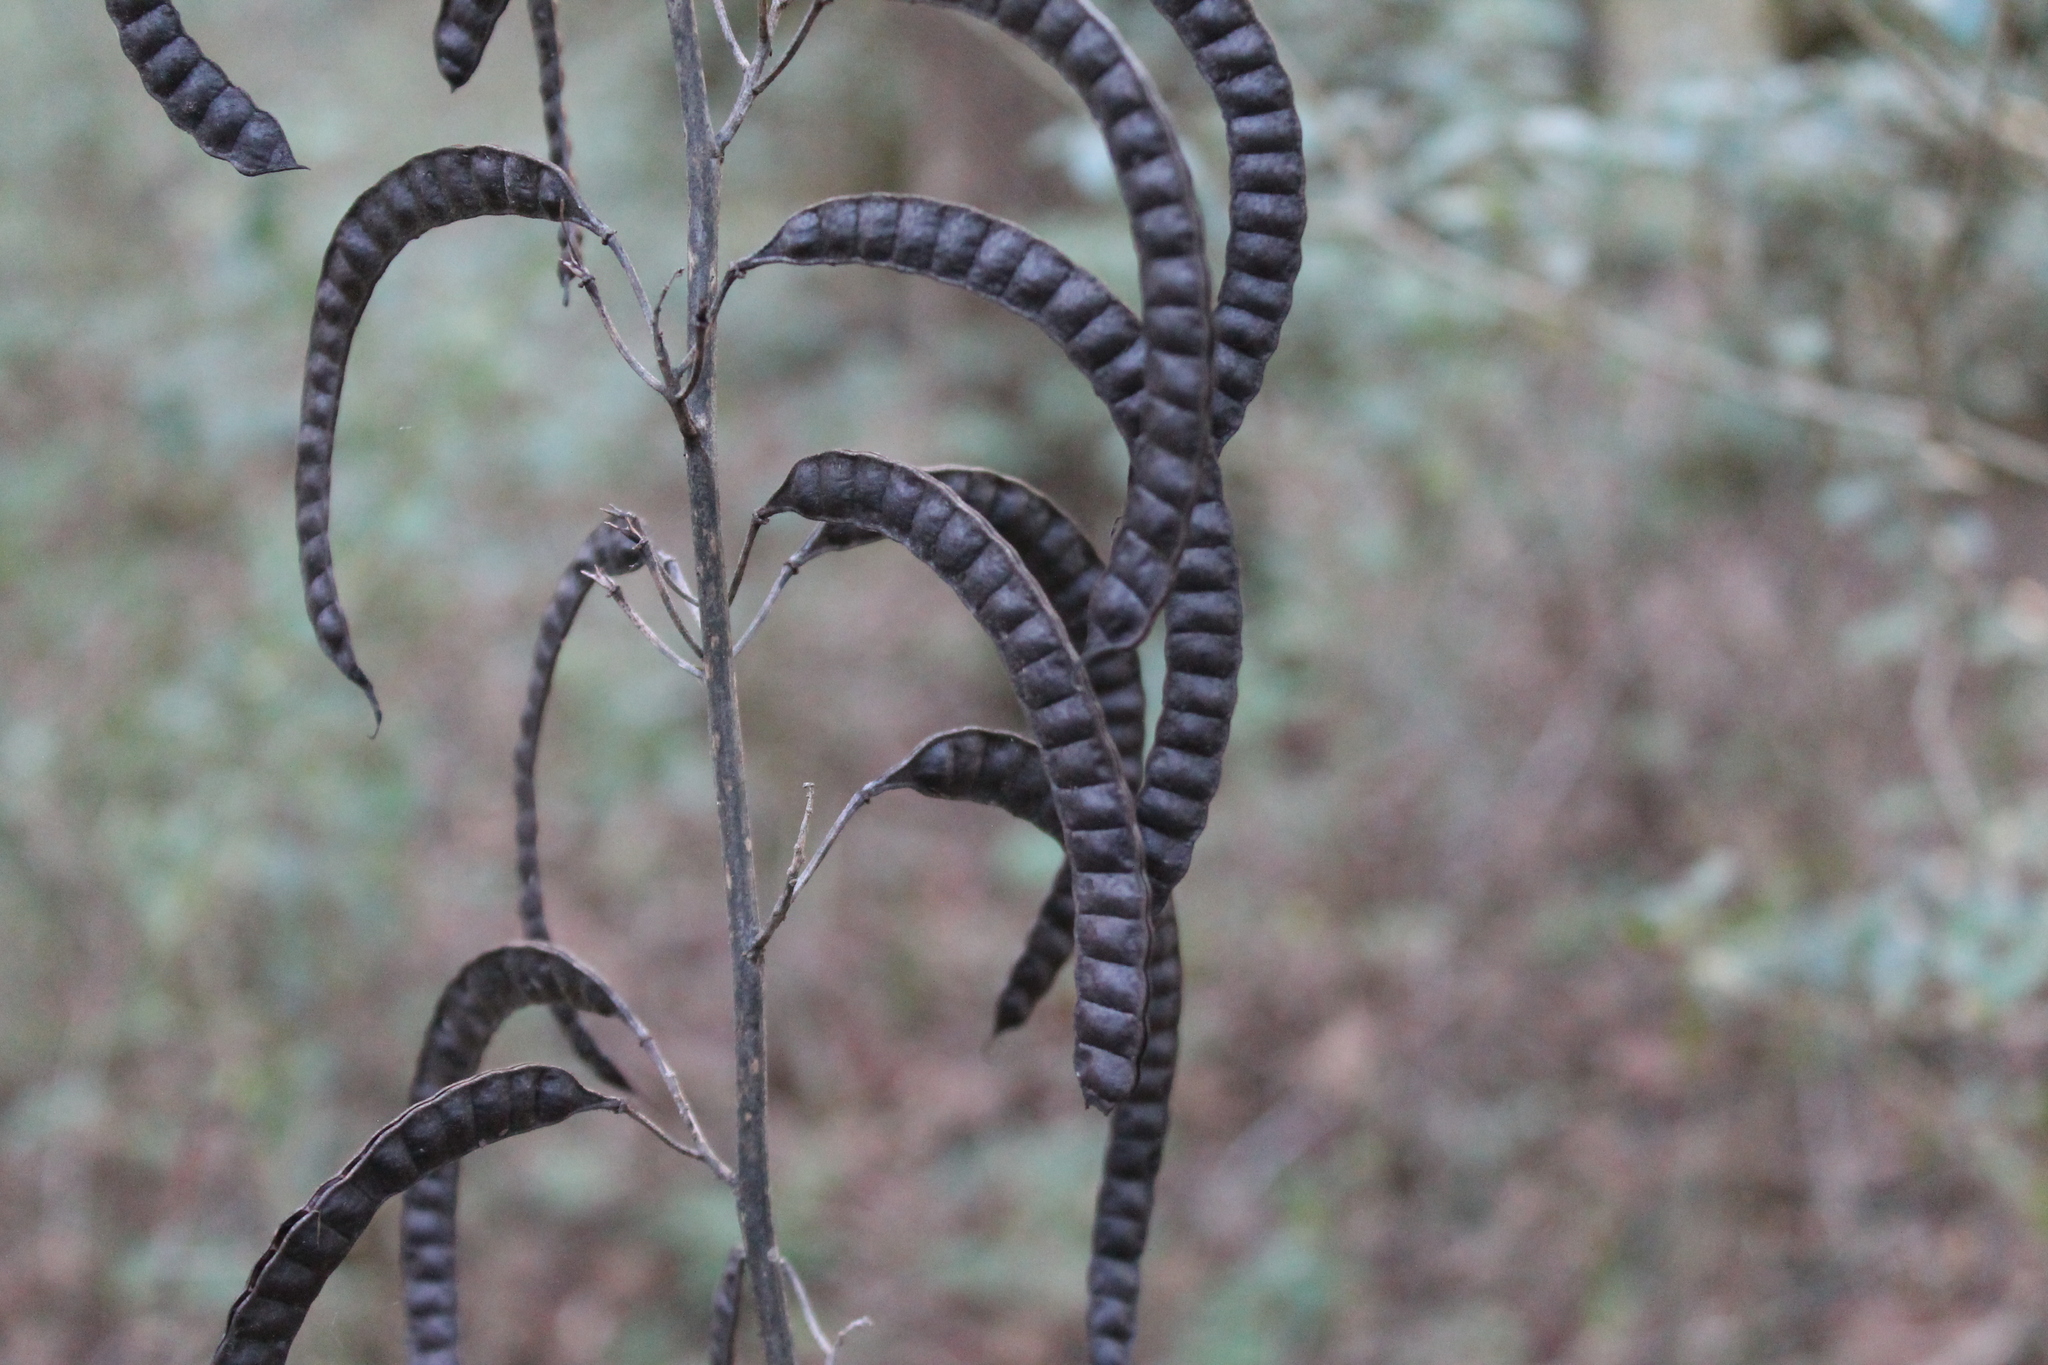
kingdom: Plantae
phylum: Tracheophyta
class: Magnoliopsida
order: Fabales
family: Fabaceae
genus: Senna
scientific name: Senna marilandica
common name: American senna
